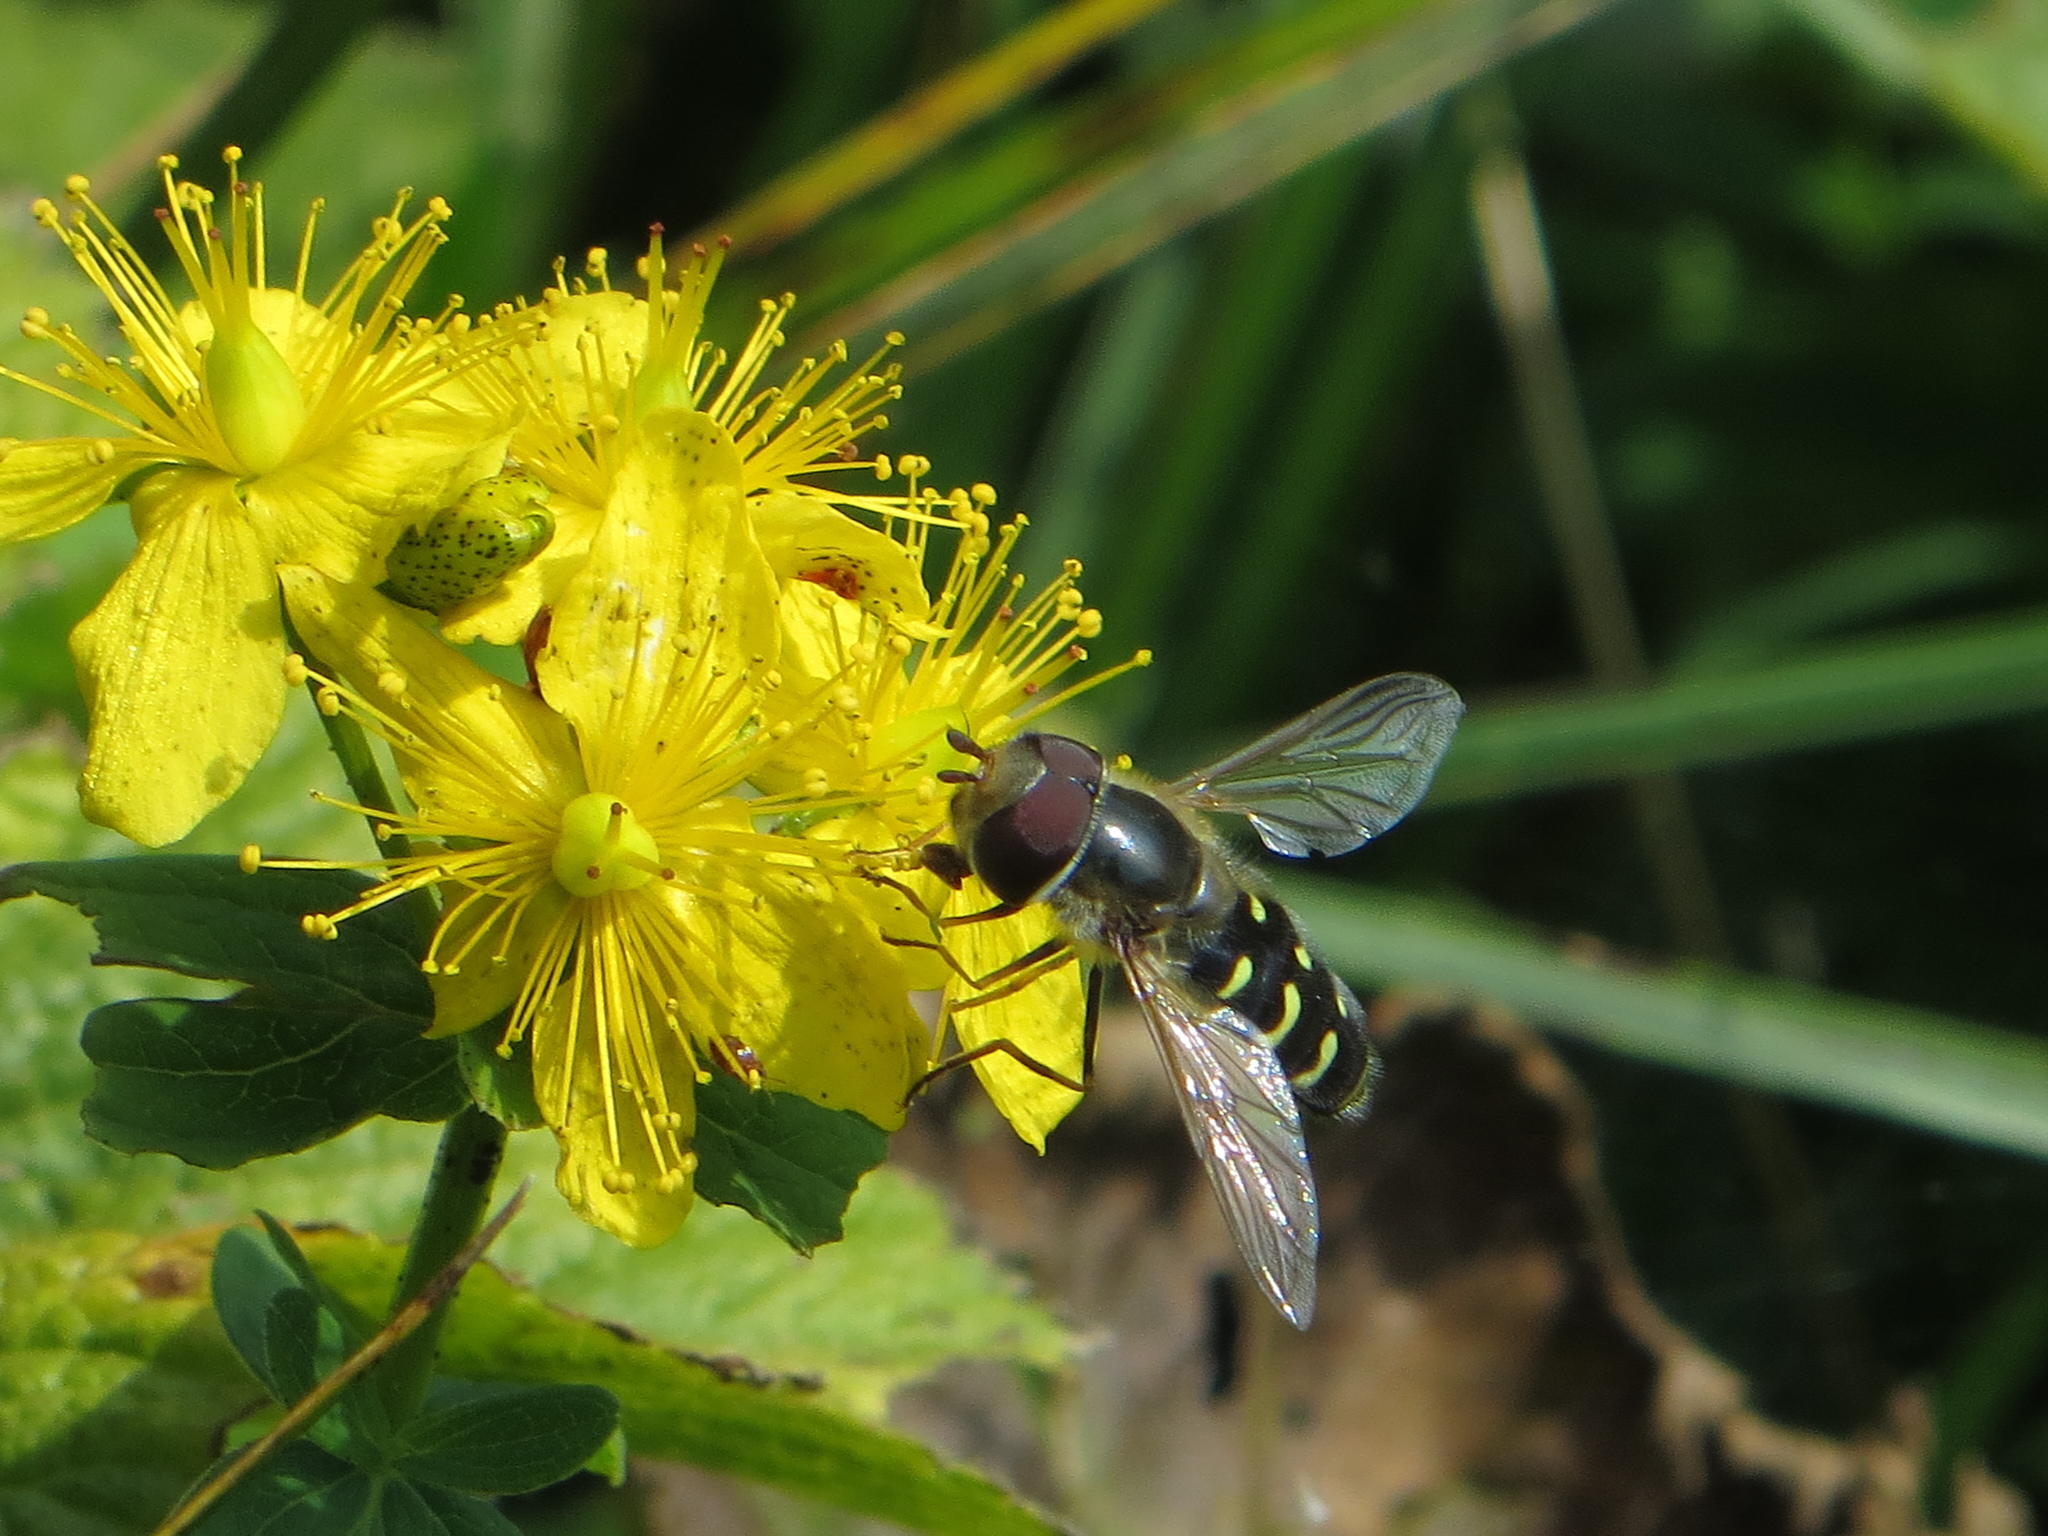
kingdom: Animalia
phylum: Arthropoda
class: Insecta
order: Diptera
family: Syrphidae
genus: Scaeva
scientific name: Scaeva selenitica
